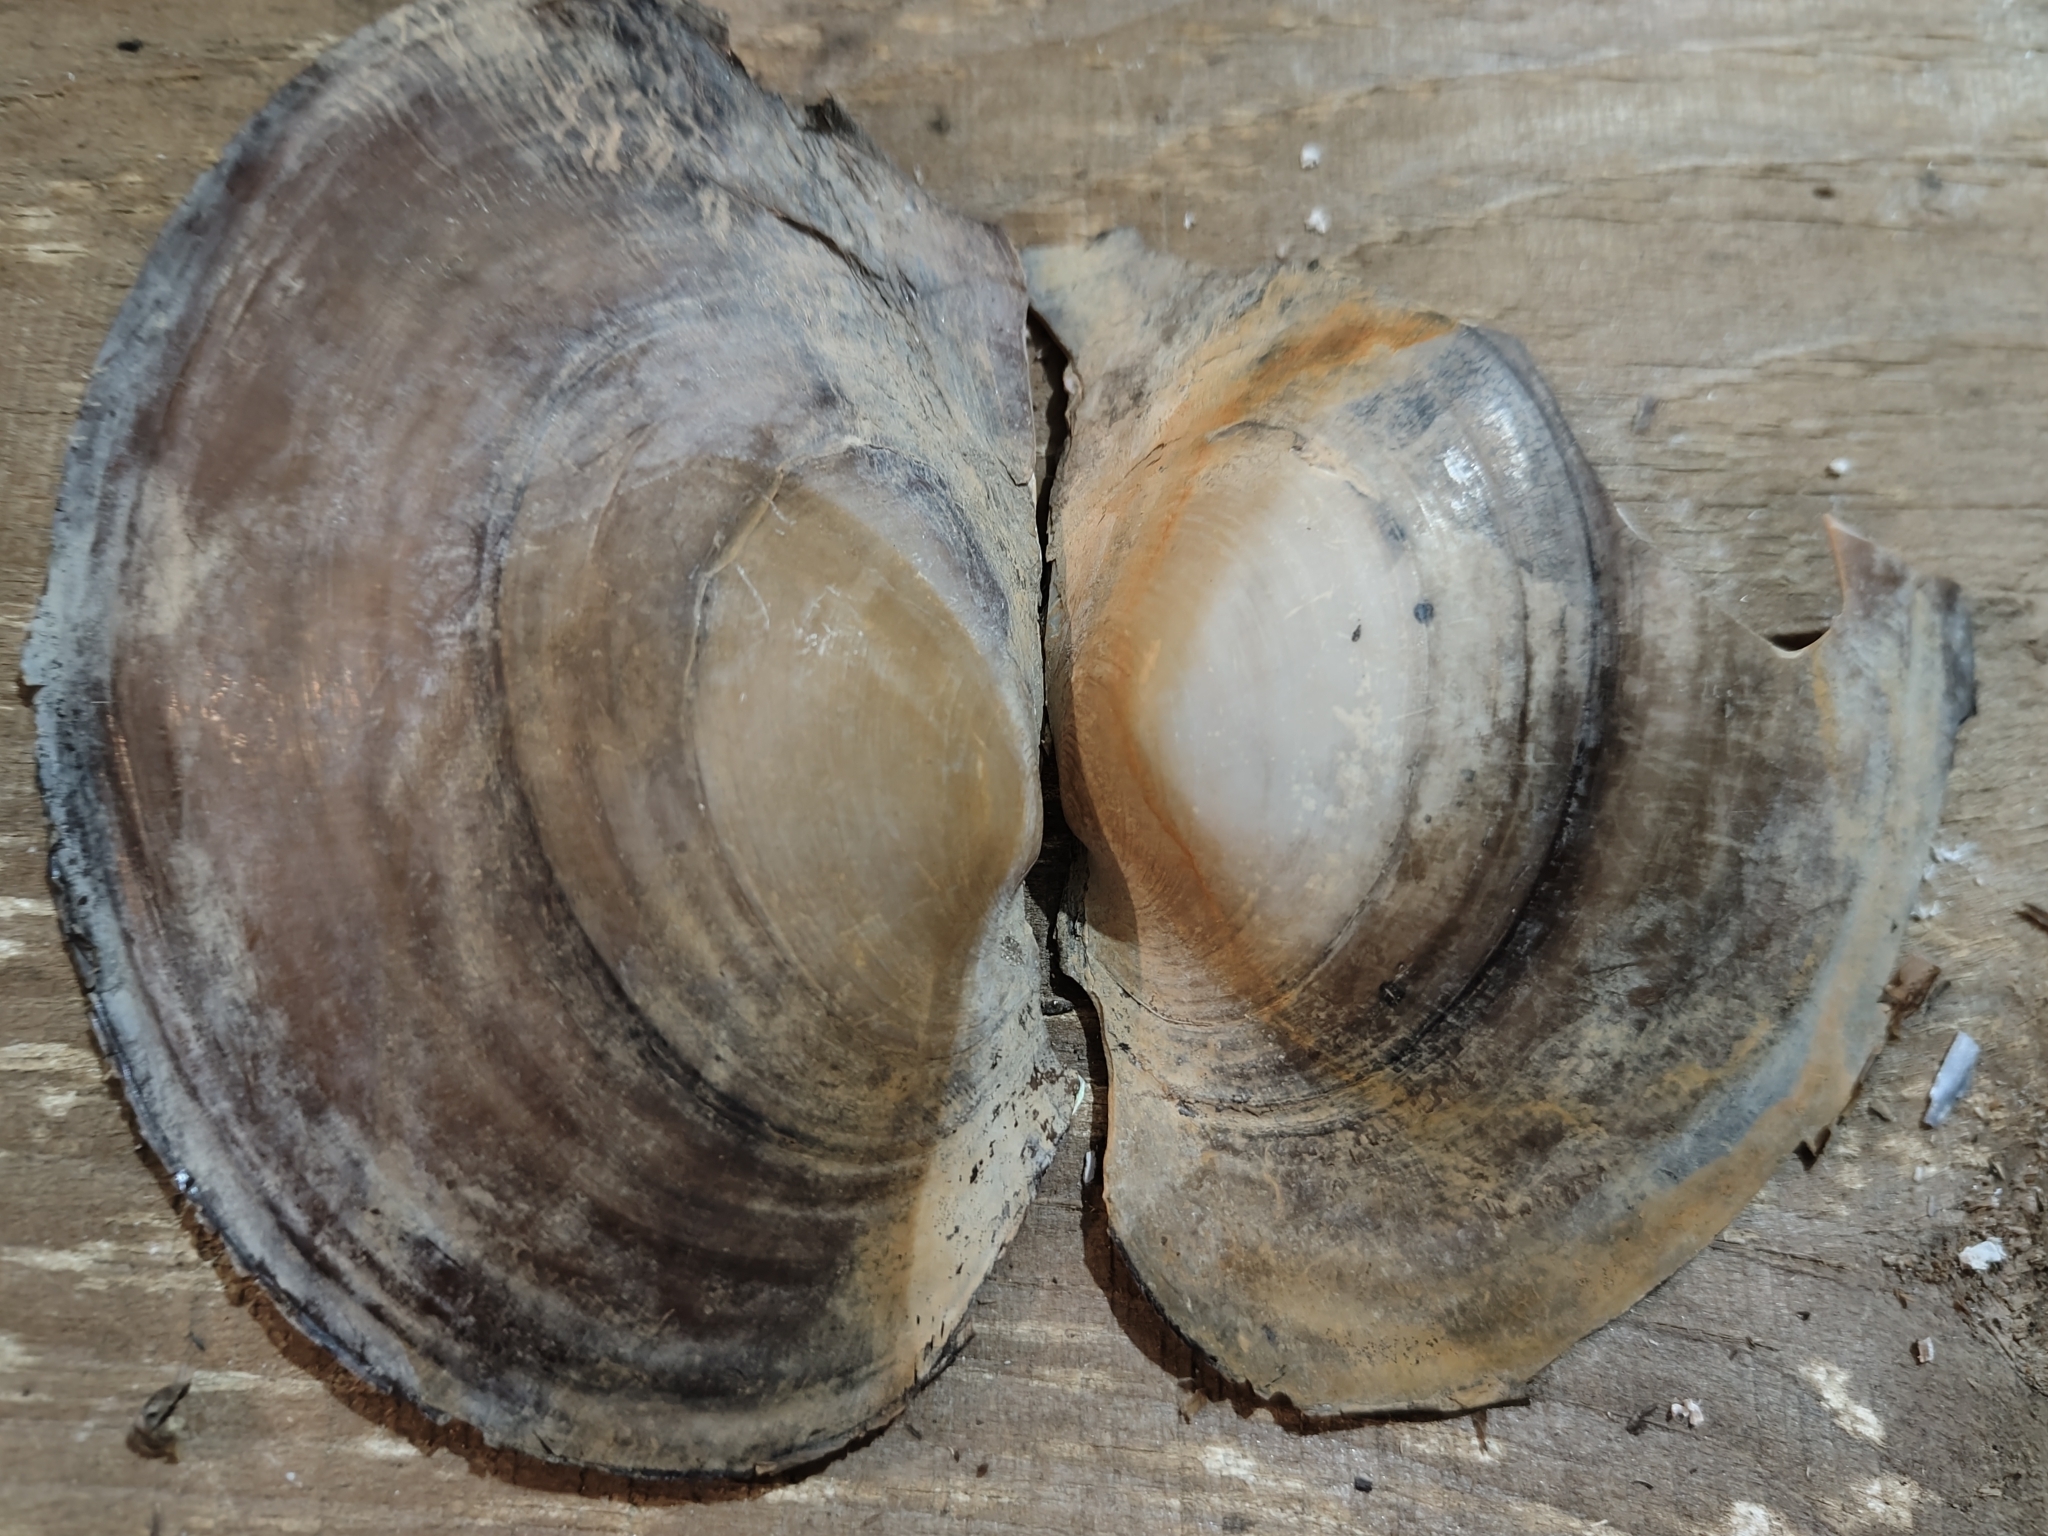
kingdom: Animalia
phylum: Mollusca
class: Bivalvia
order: Unionida
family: Unionidae
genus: Potamilus
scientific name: Potamilus ohiensis
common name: Pink papershell
